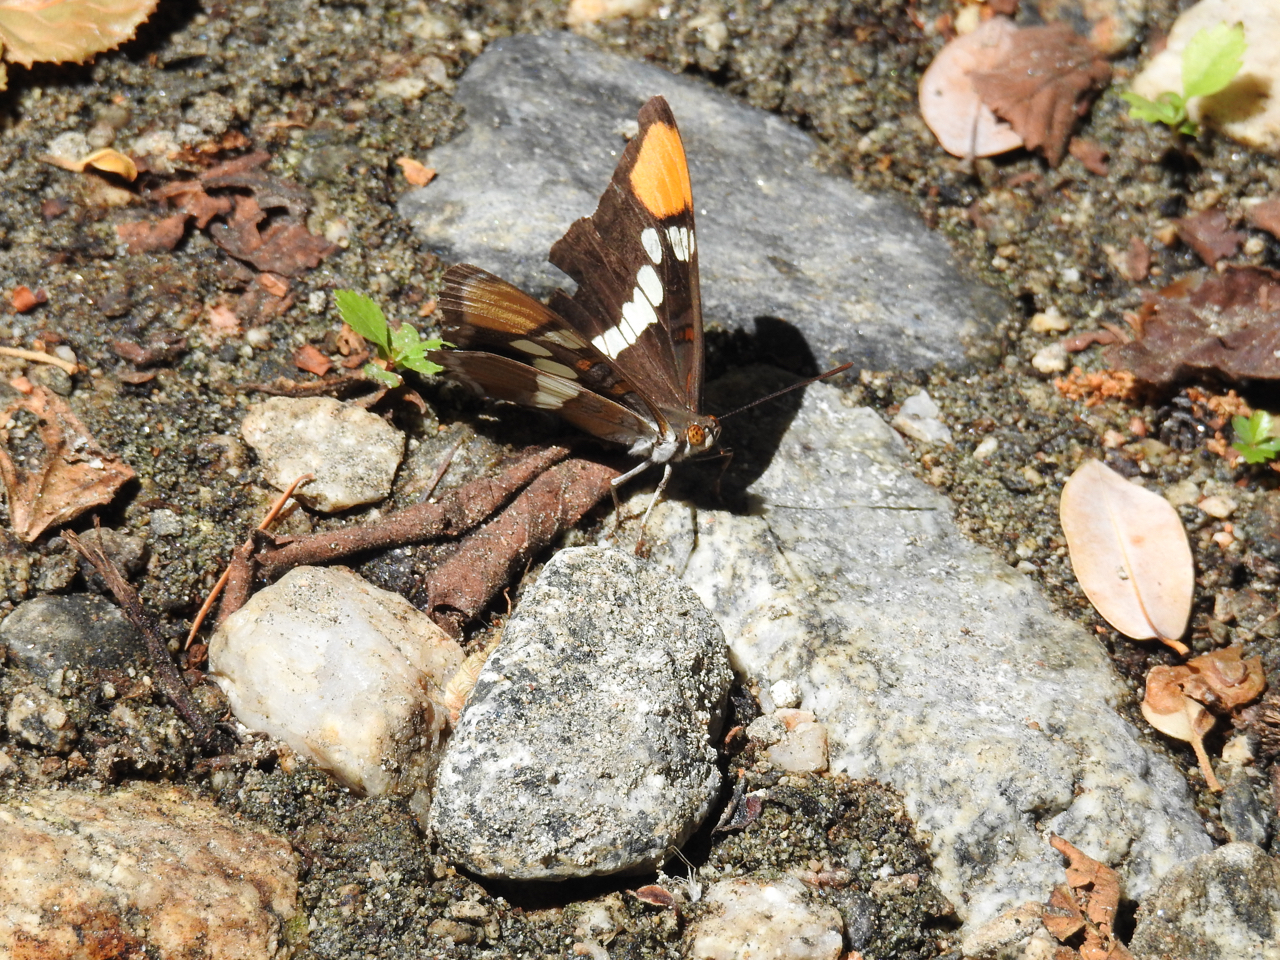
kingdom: Animalia
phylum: Arthropoda
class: Insecta
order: Lepidoptera
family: Nymphalidae
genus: Limenitis
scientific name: Limenitis bredowii
